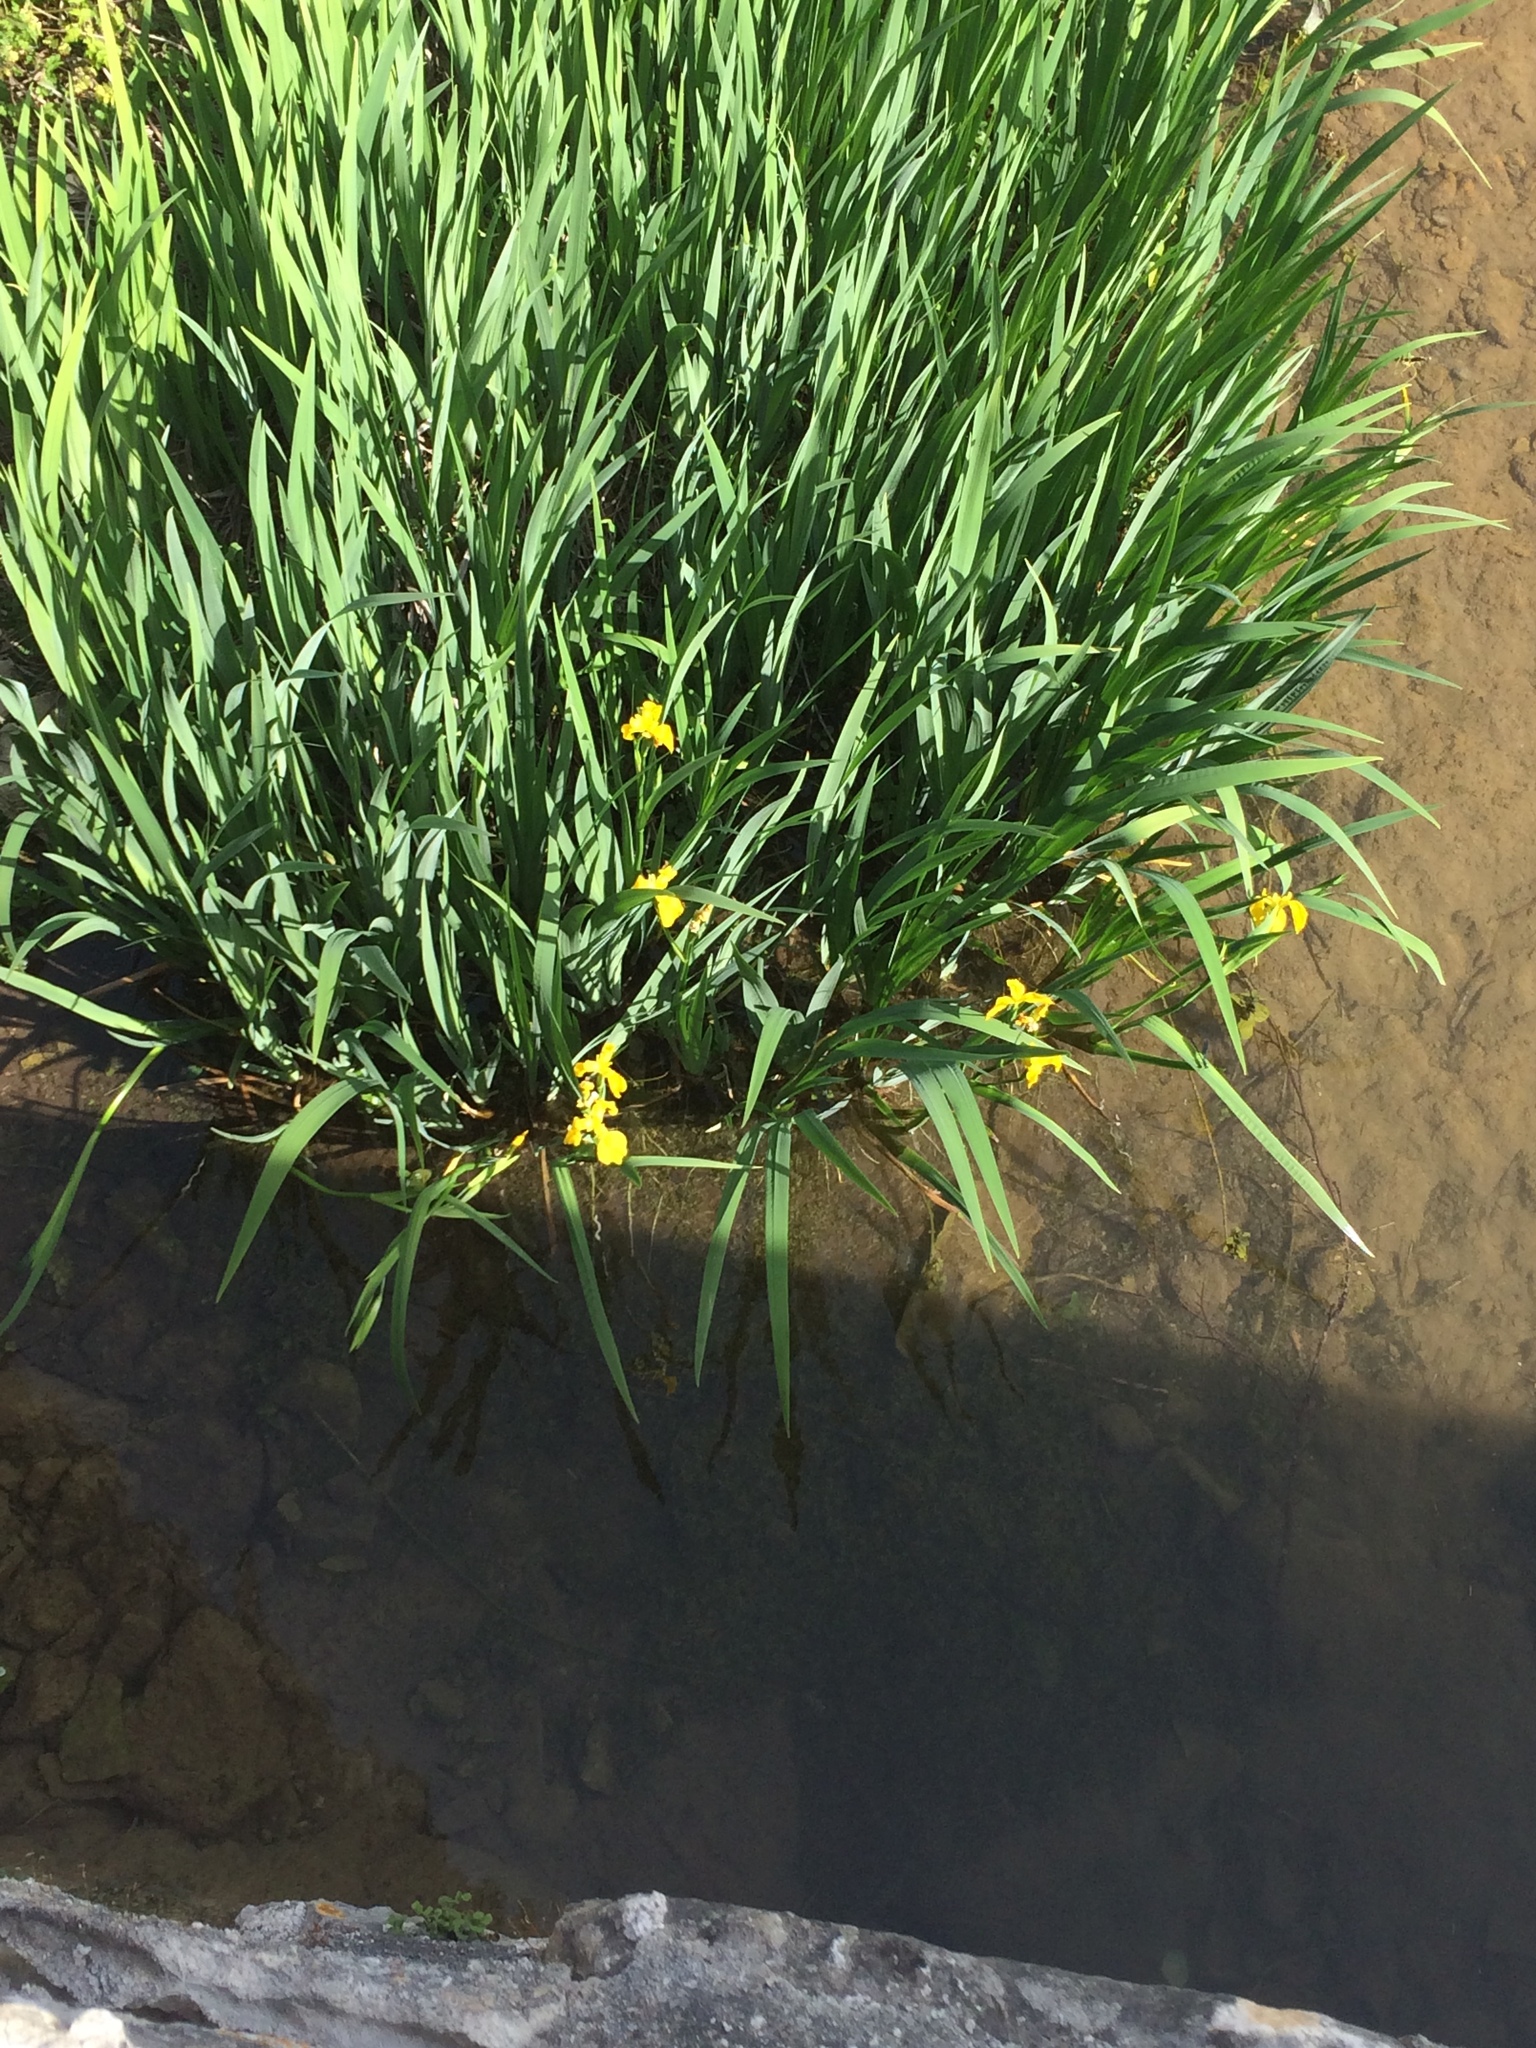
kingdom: Plantae
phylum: Tracheophyta
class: Liliopsida
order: Asparagales
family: Iridaceae
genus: Iris
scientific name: Iris pseudacorus
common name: Yellow flag
